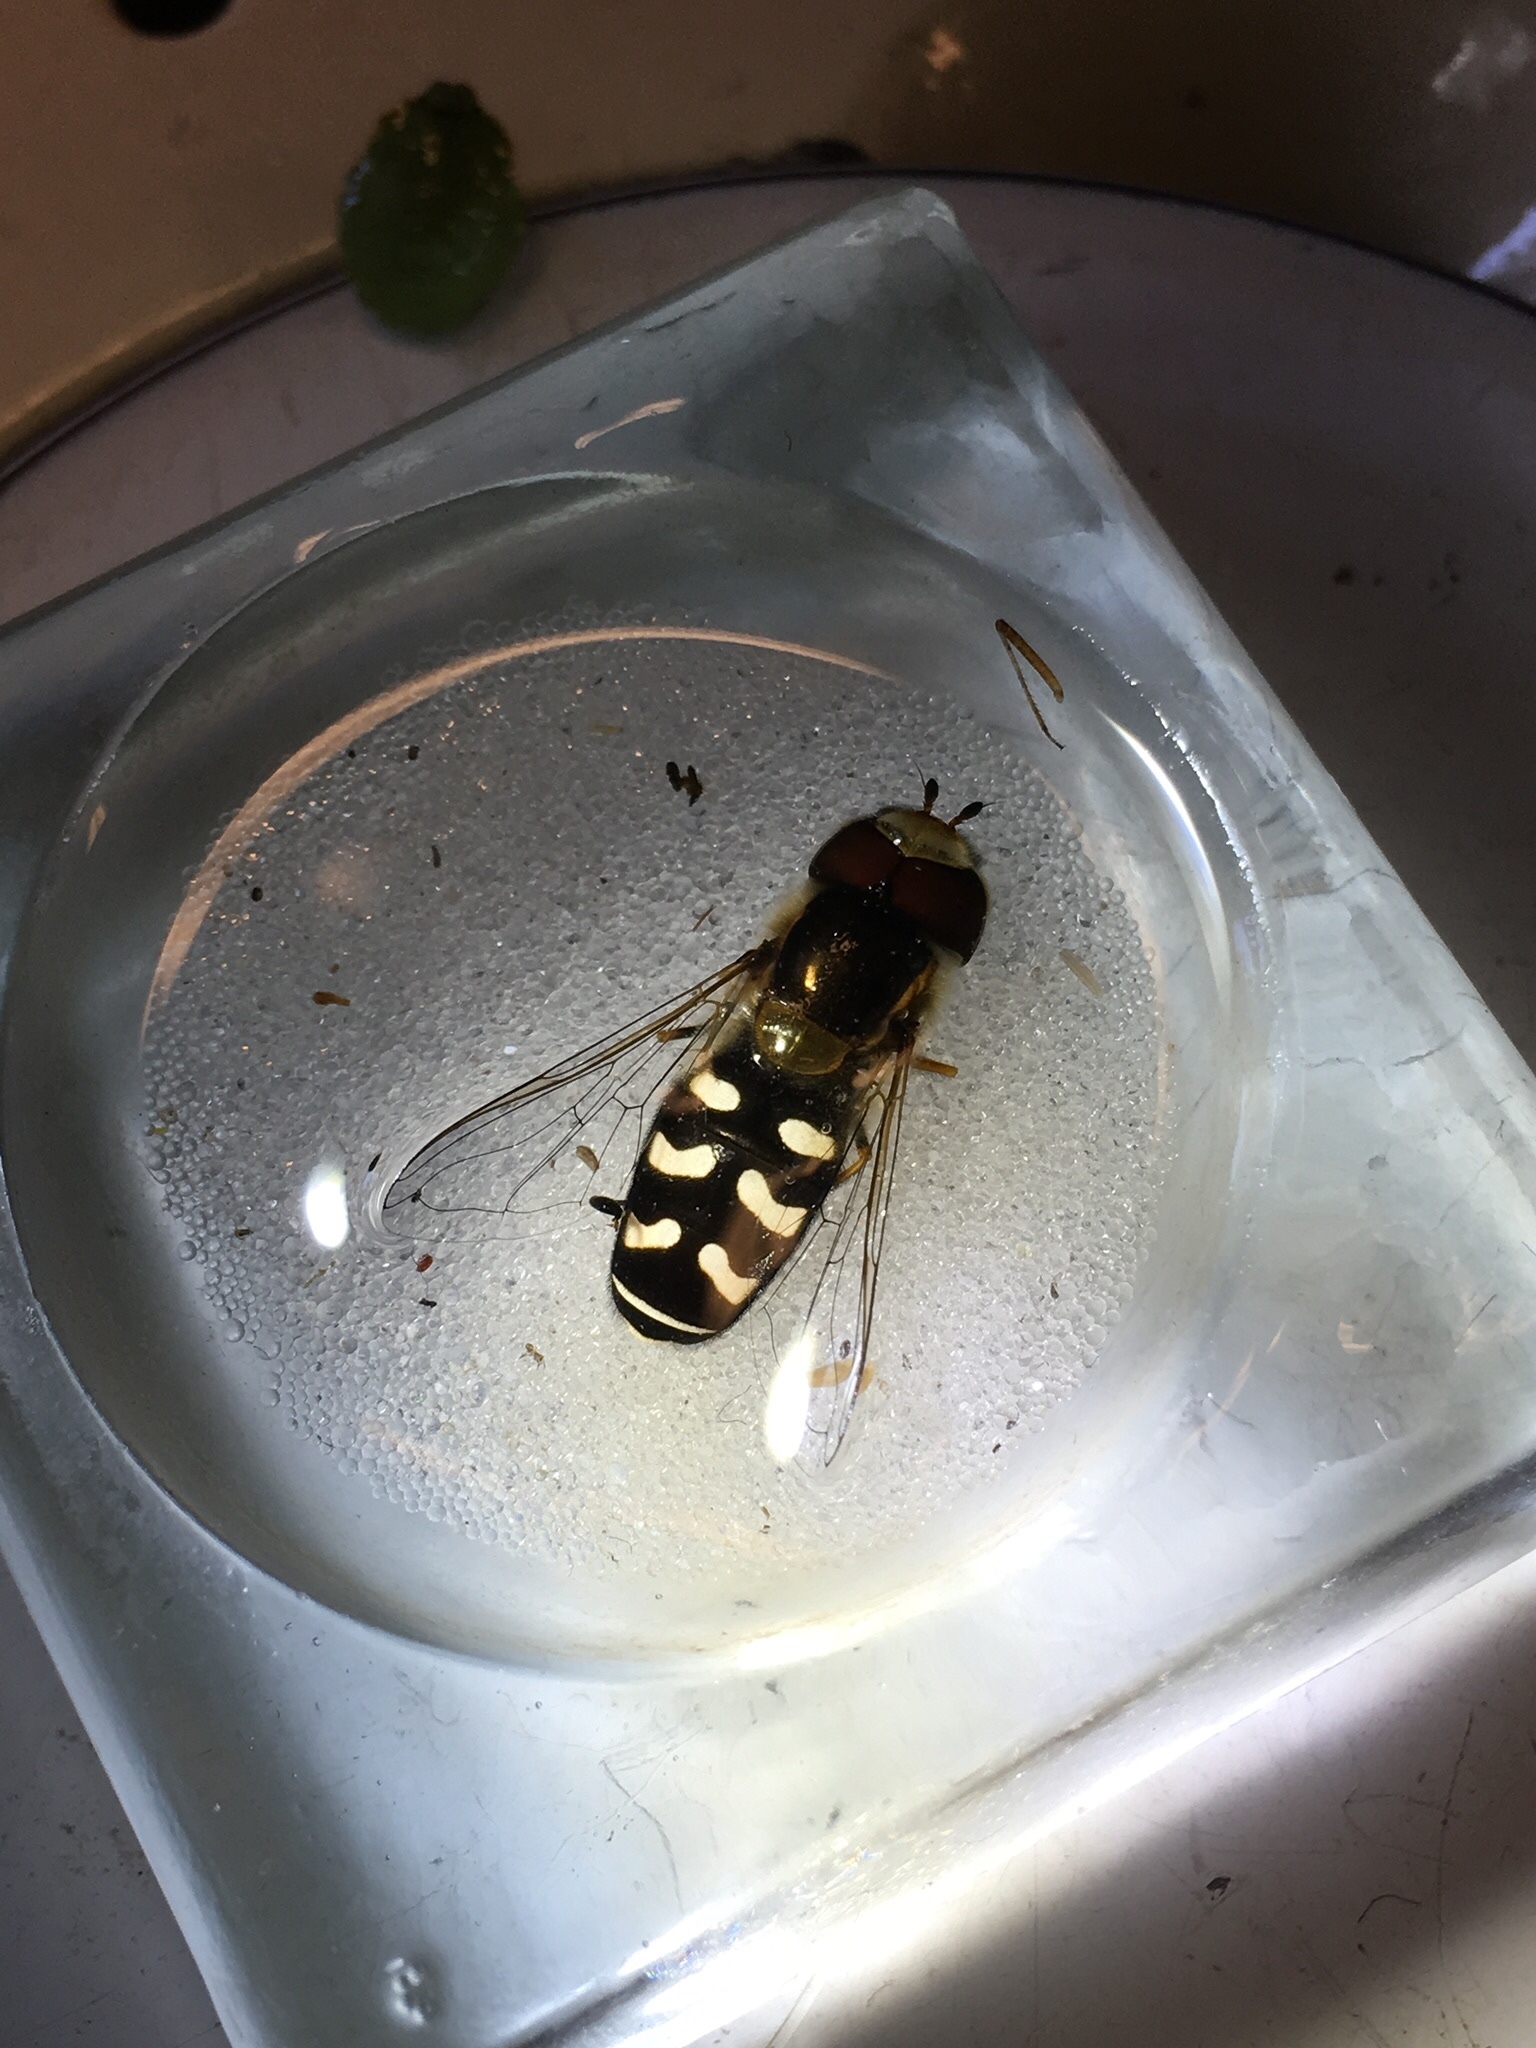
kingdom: Animalia
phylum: Arthropoda
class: Insecta
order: Diptera
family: Syrphidae
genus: Scaeva
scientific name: Scaeva pyrastri
